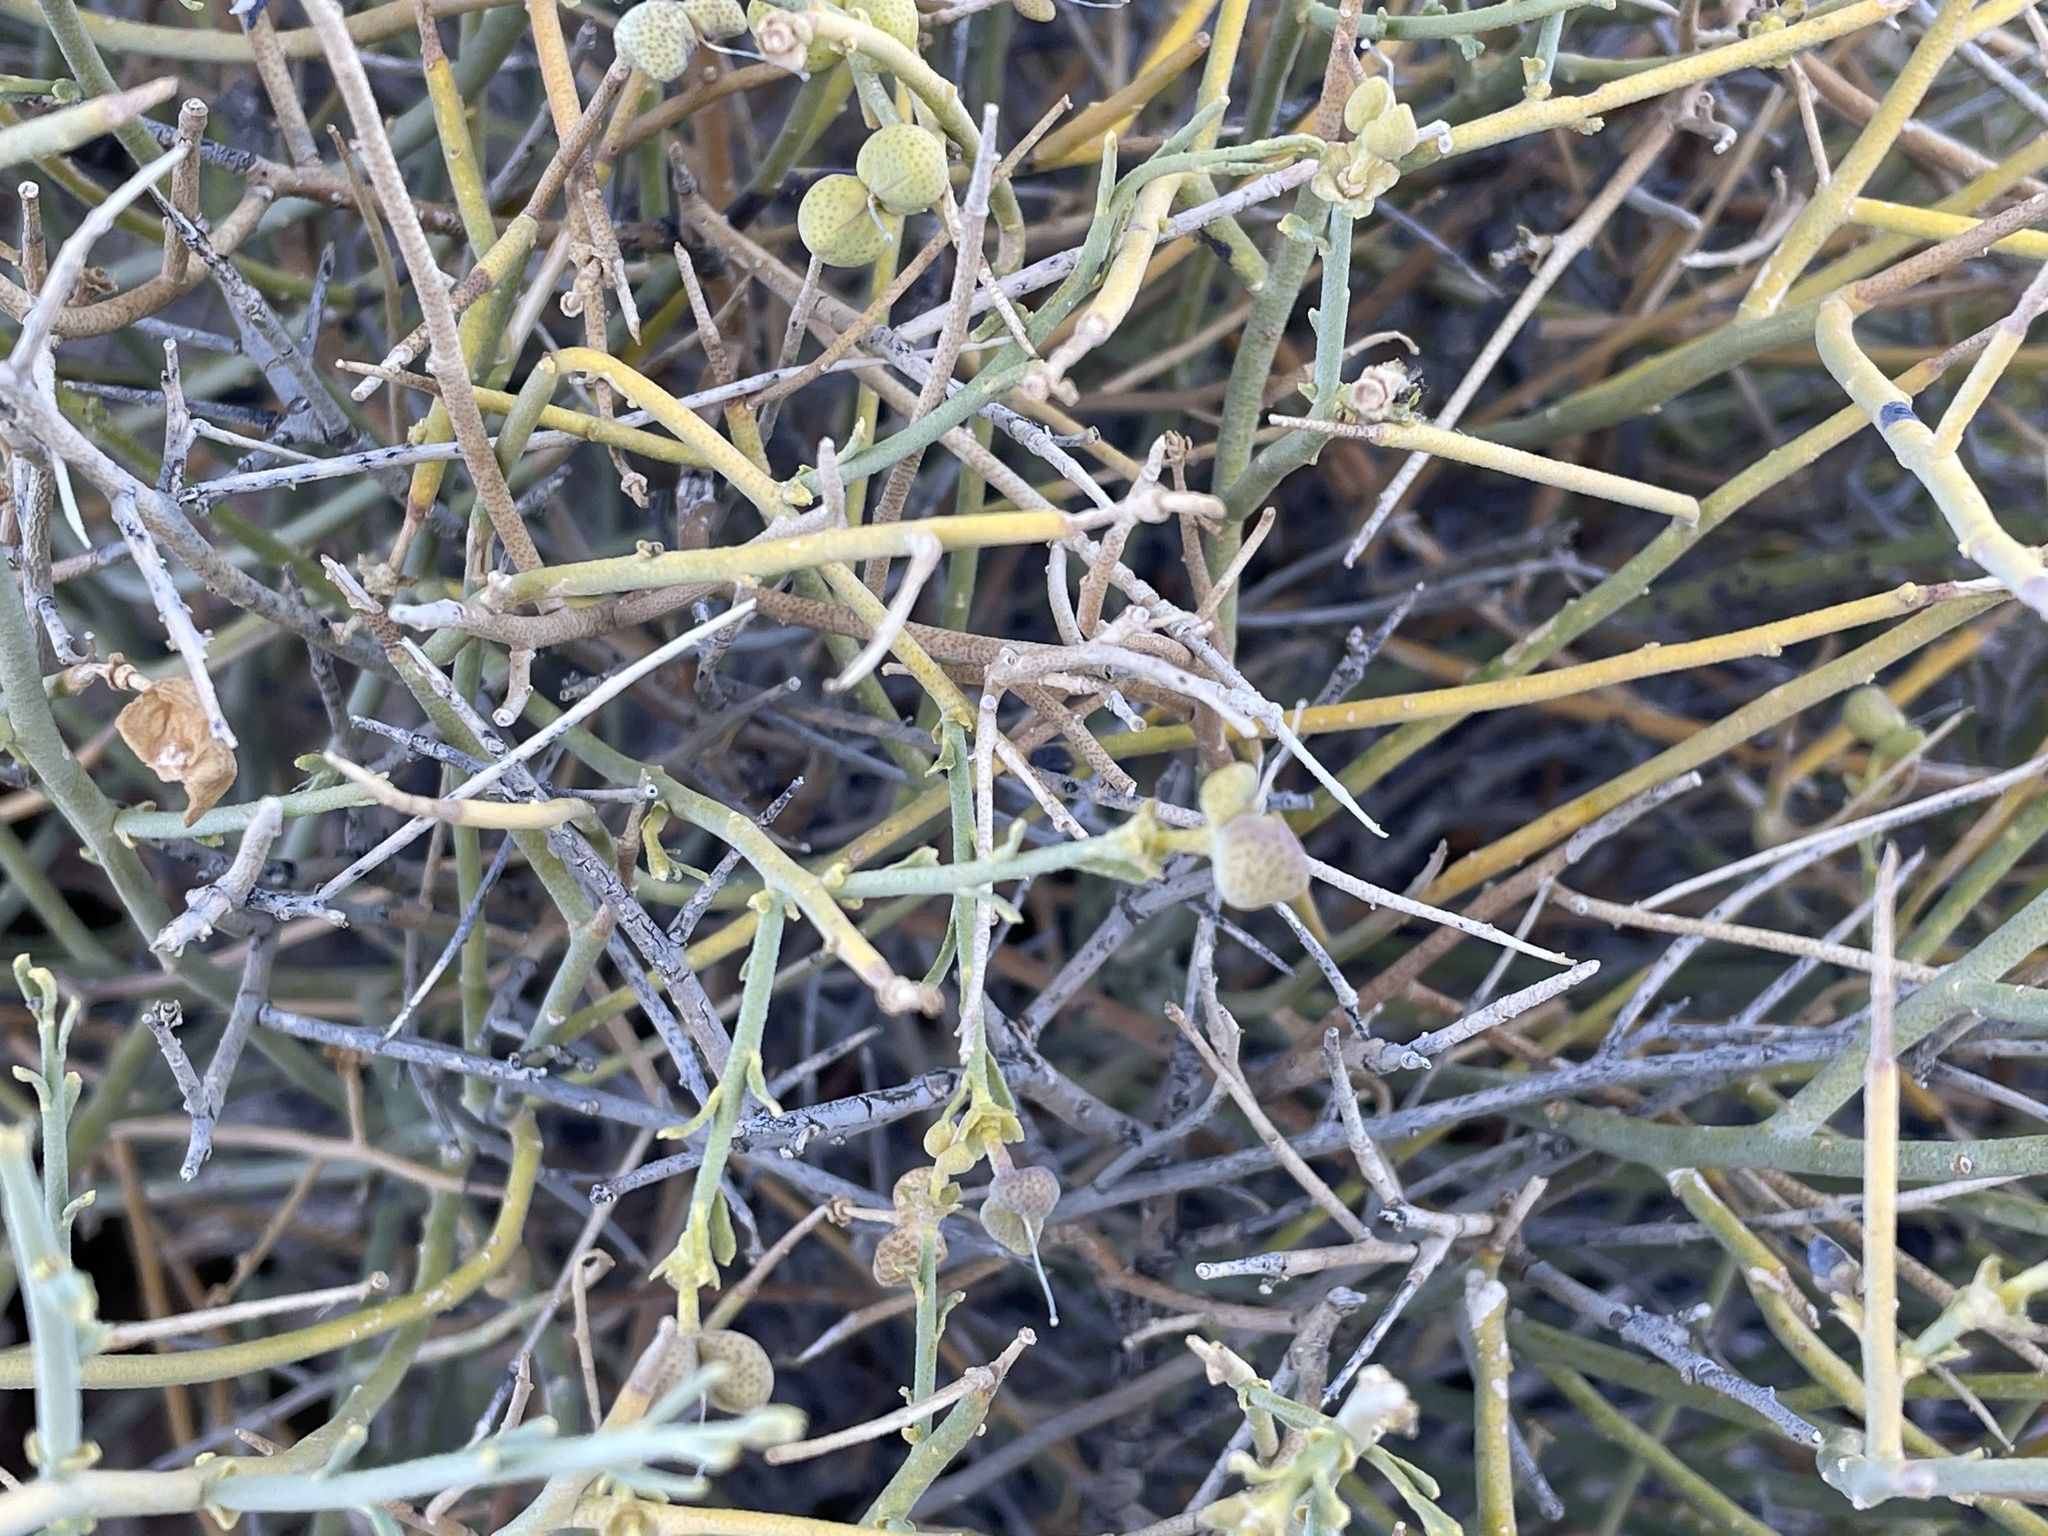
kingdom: Plantae
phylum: Tracheophyta
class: Magnoliopsida
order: Sapindales
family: Rutaceae
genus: Thamnosma
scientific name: Thamnosma montana
